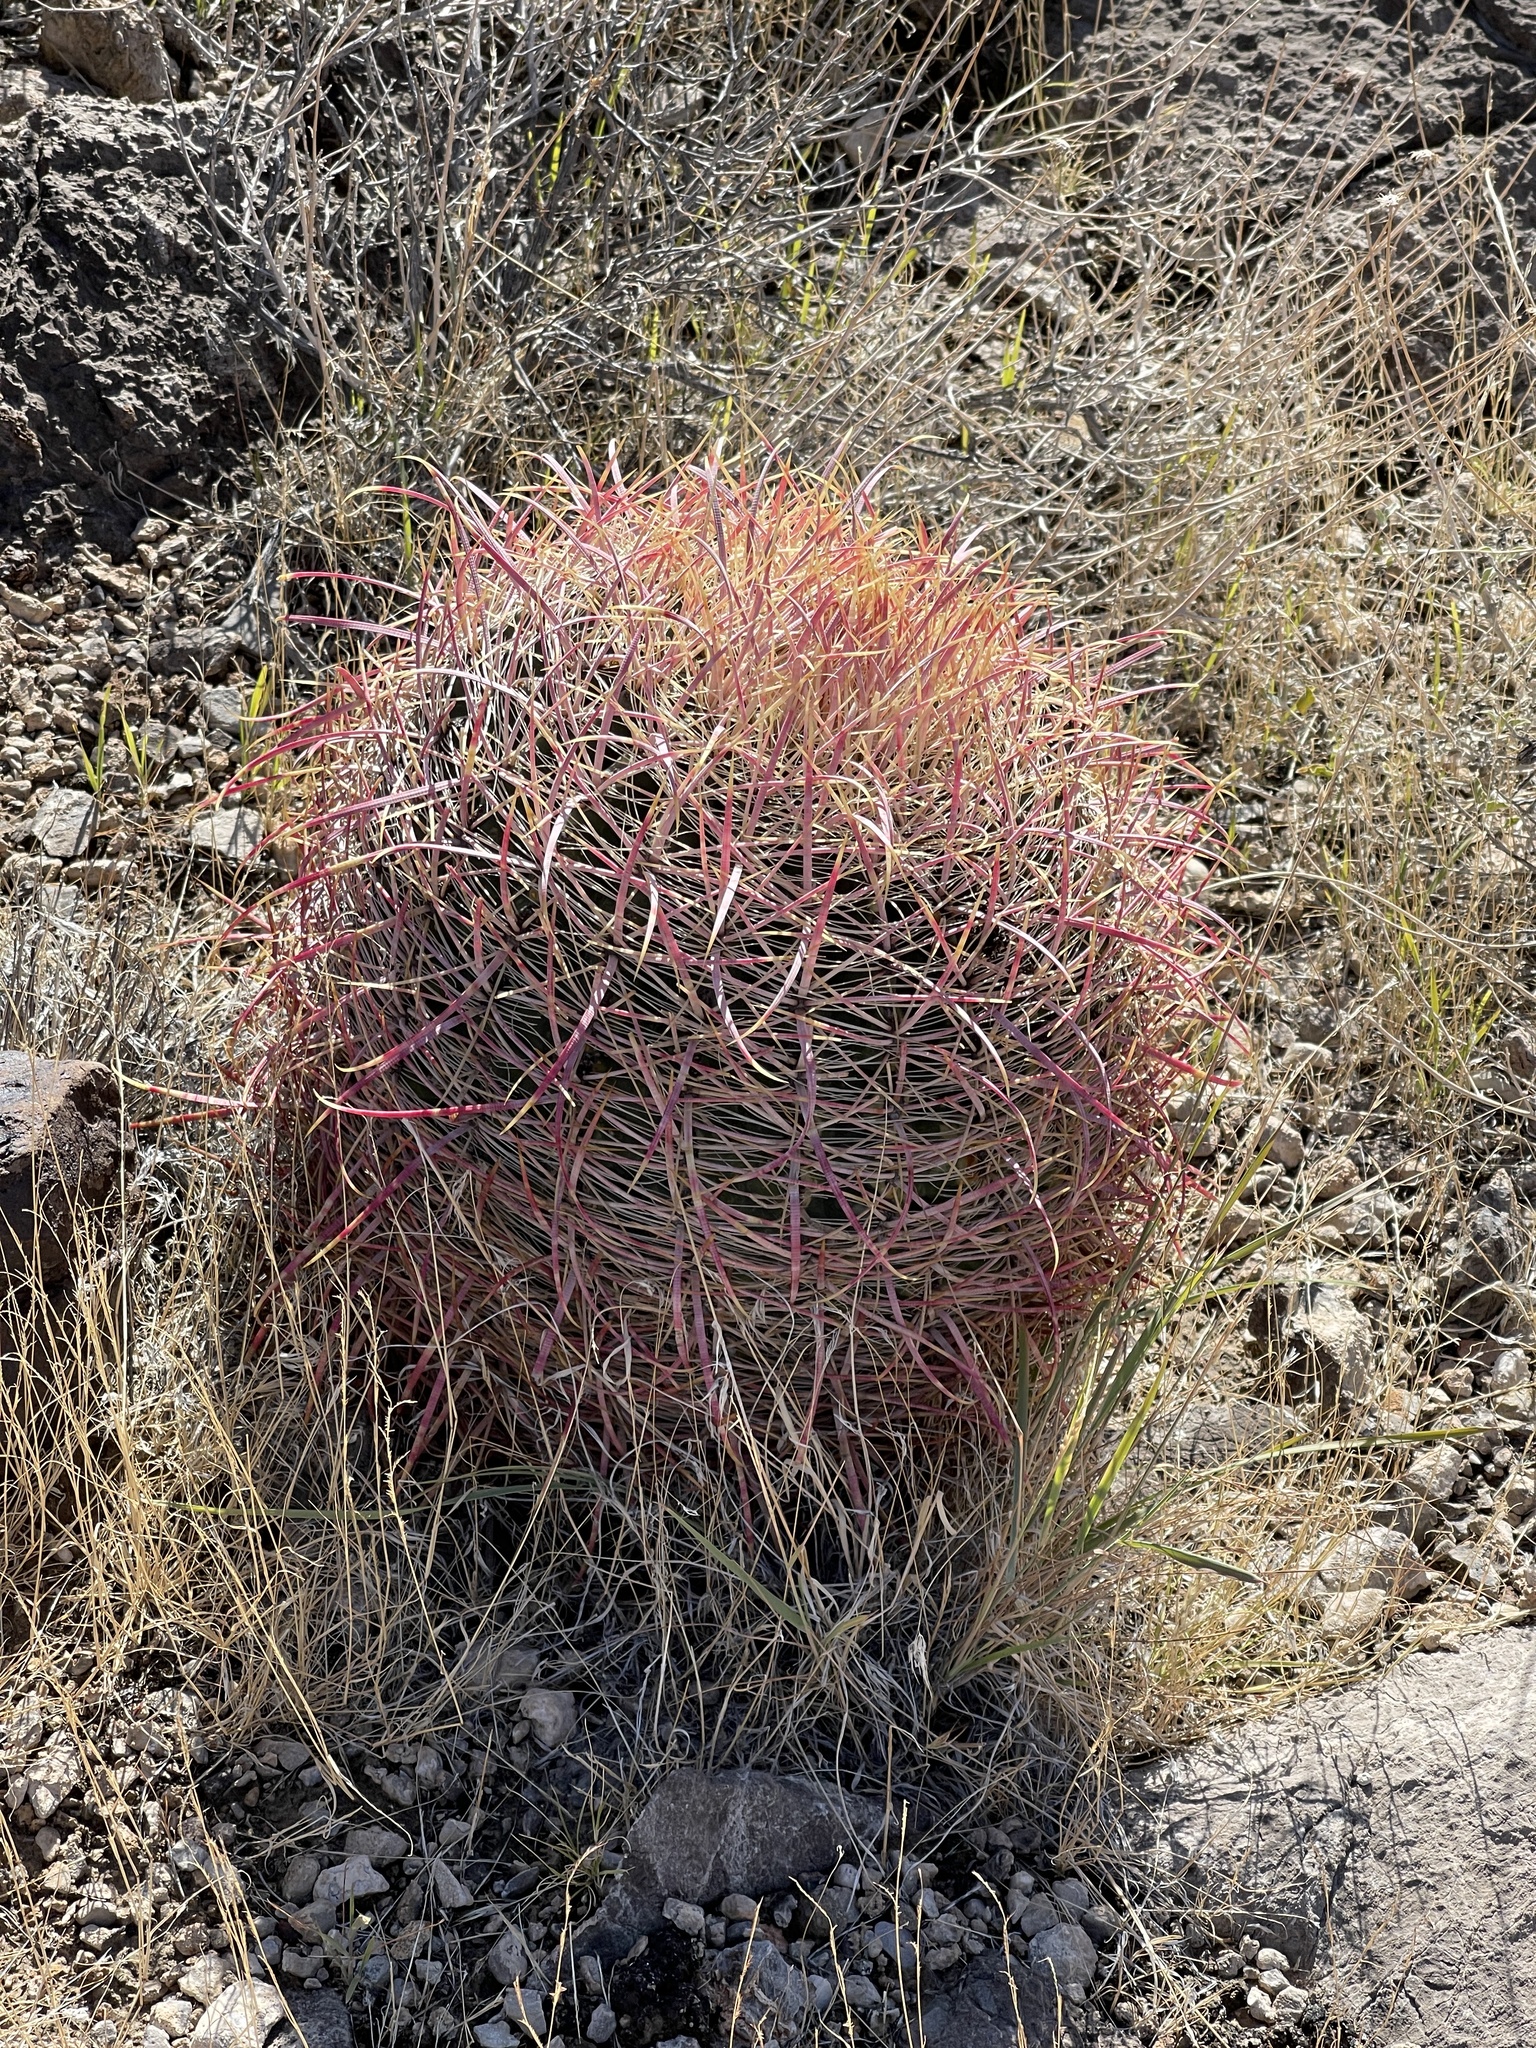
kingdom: Plantae
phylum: Tracheophyta
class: Magnoliopsida
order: Caryophyllales
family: Cactaceae
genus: Ferocactus
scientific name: Ferocactus cylindraceus
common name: California barrel cactus
